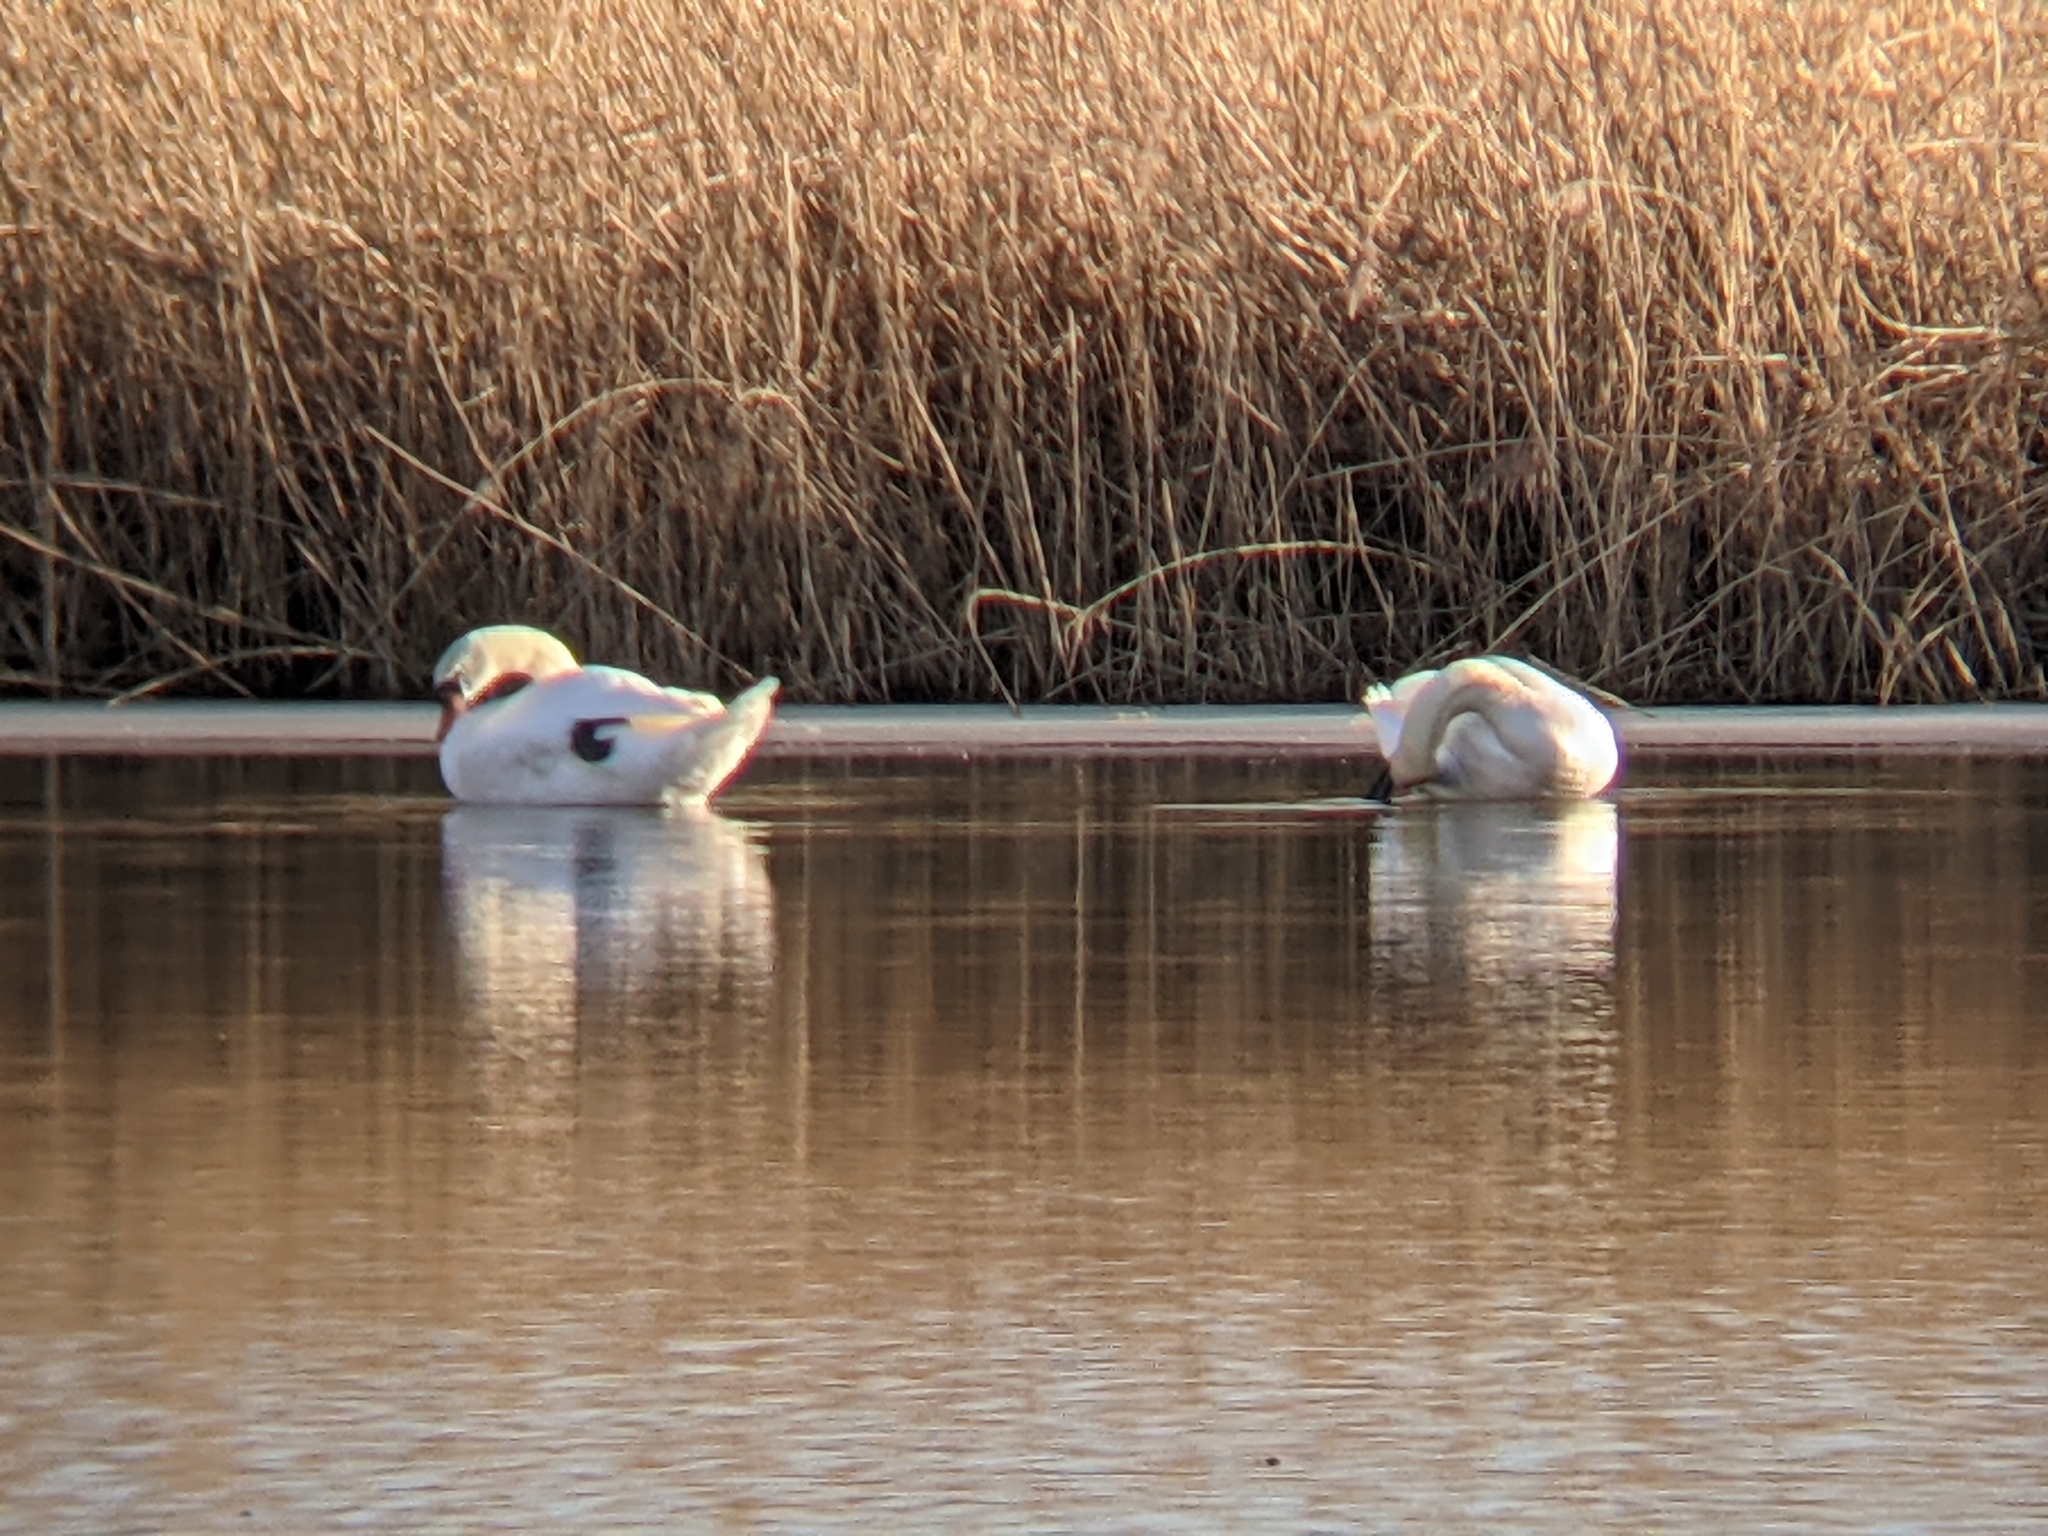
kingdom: Animalia
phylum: Chordata
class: Aves
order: Anseriformes
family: Anatidae
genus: Cygnus
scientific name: Cygnus olor
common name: Mute swan
